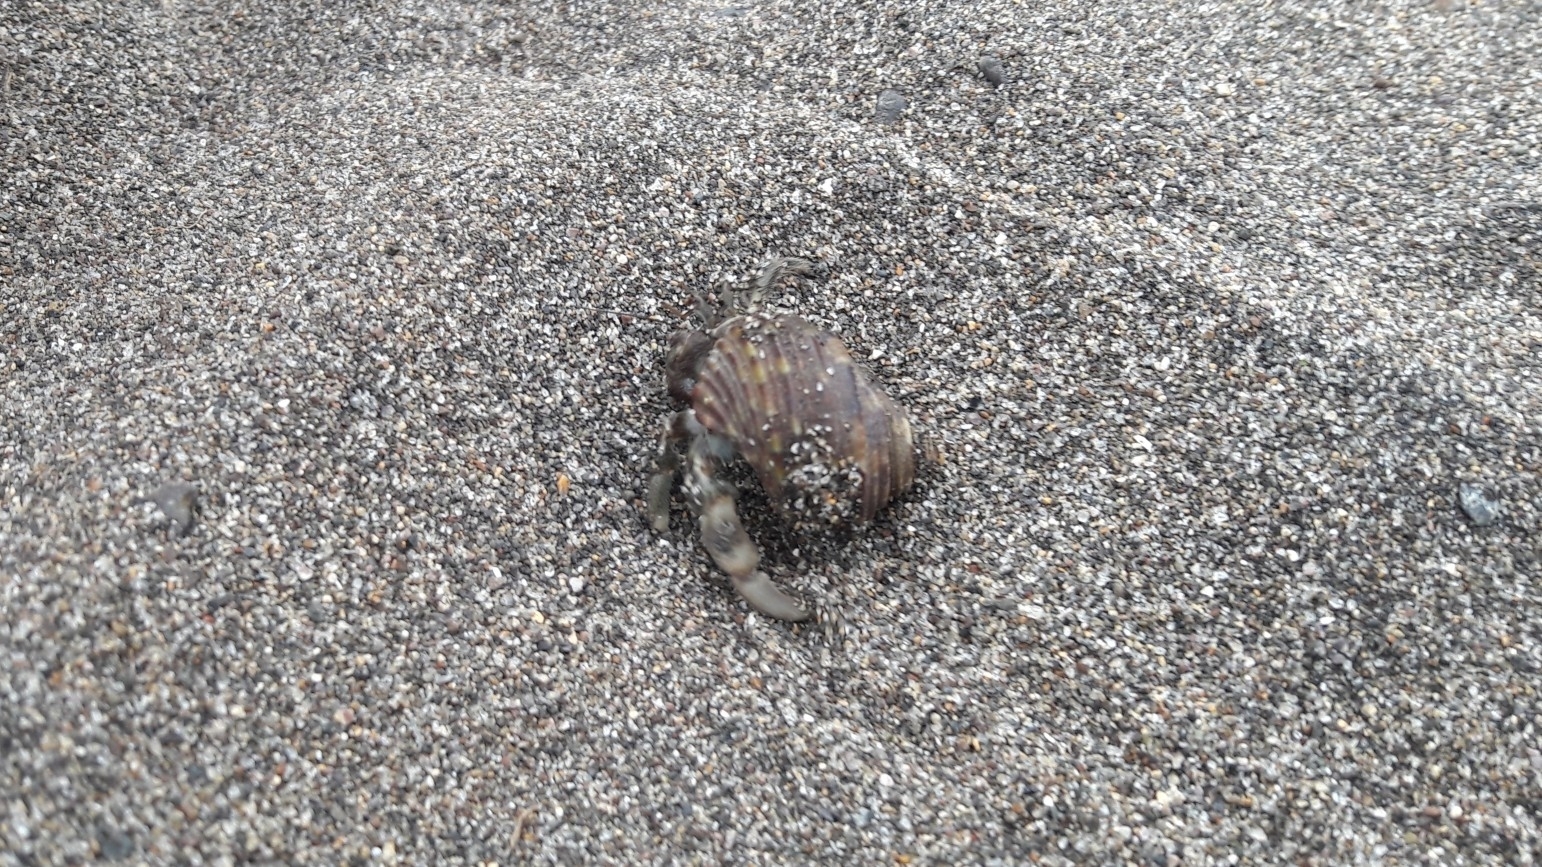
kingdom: Animalia
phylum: Arthropoda
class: Malacostraca
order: Decapoda
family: Coenobitidae
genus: Coenobita
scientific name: Coenobita rugosus
